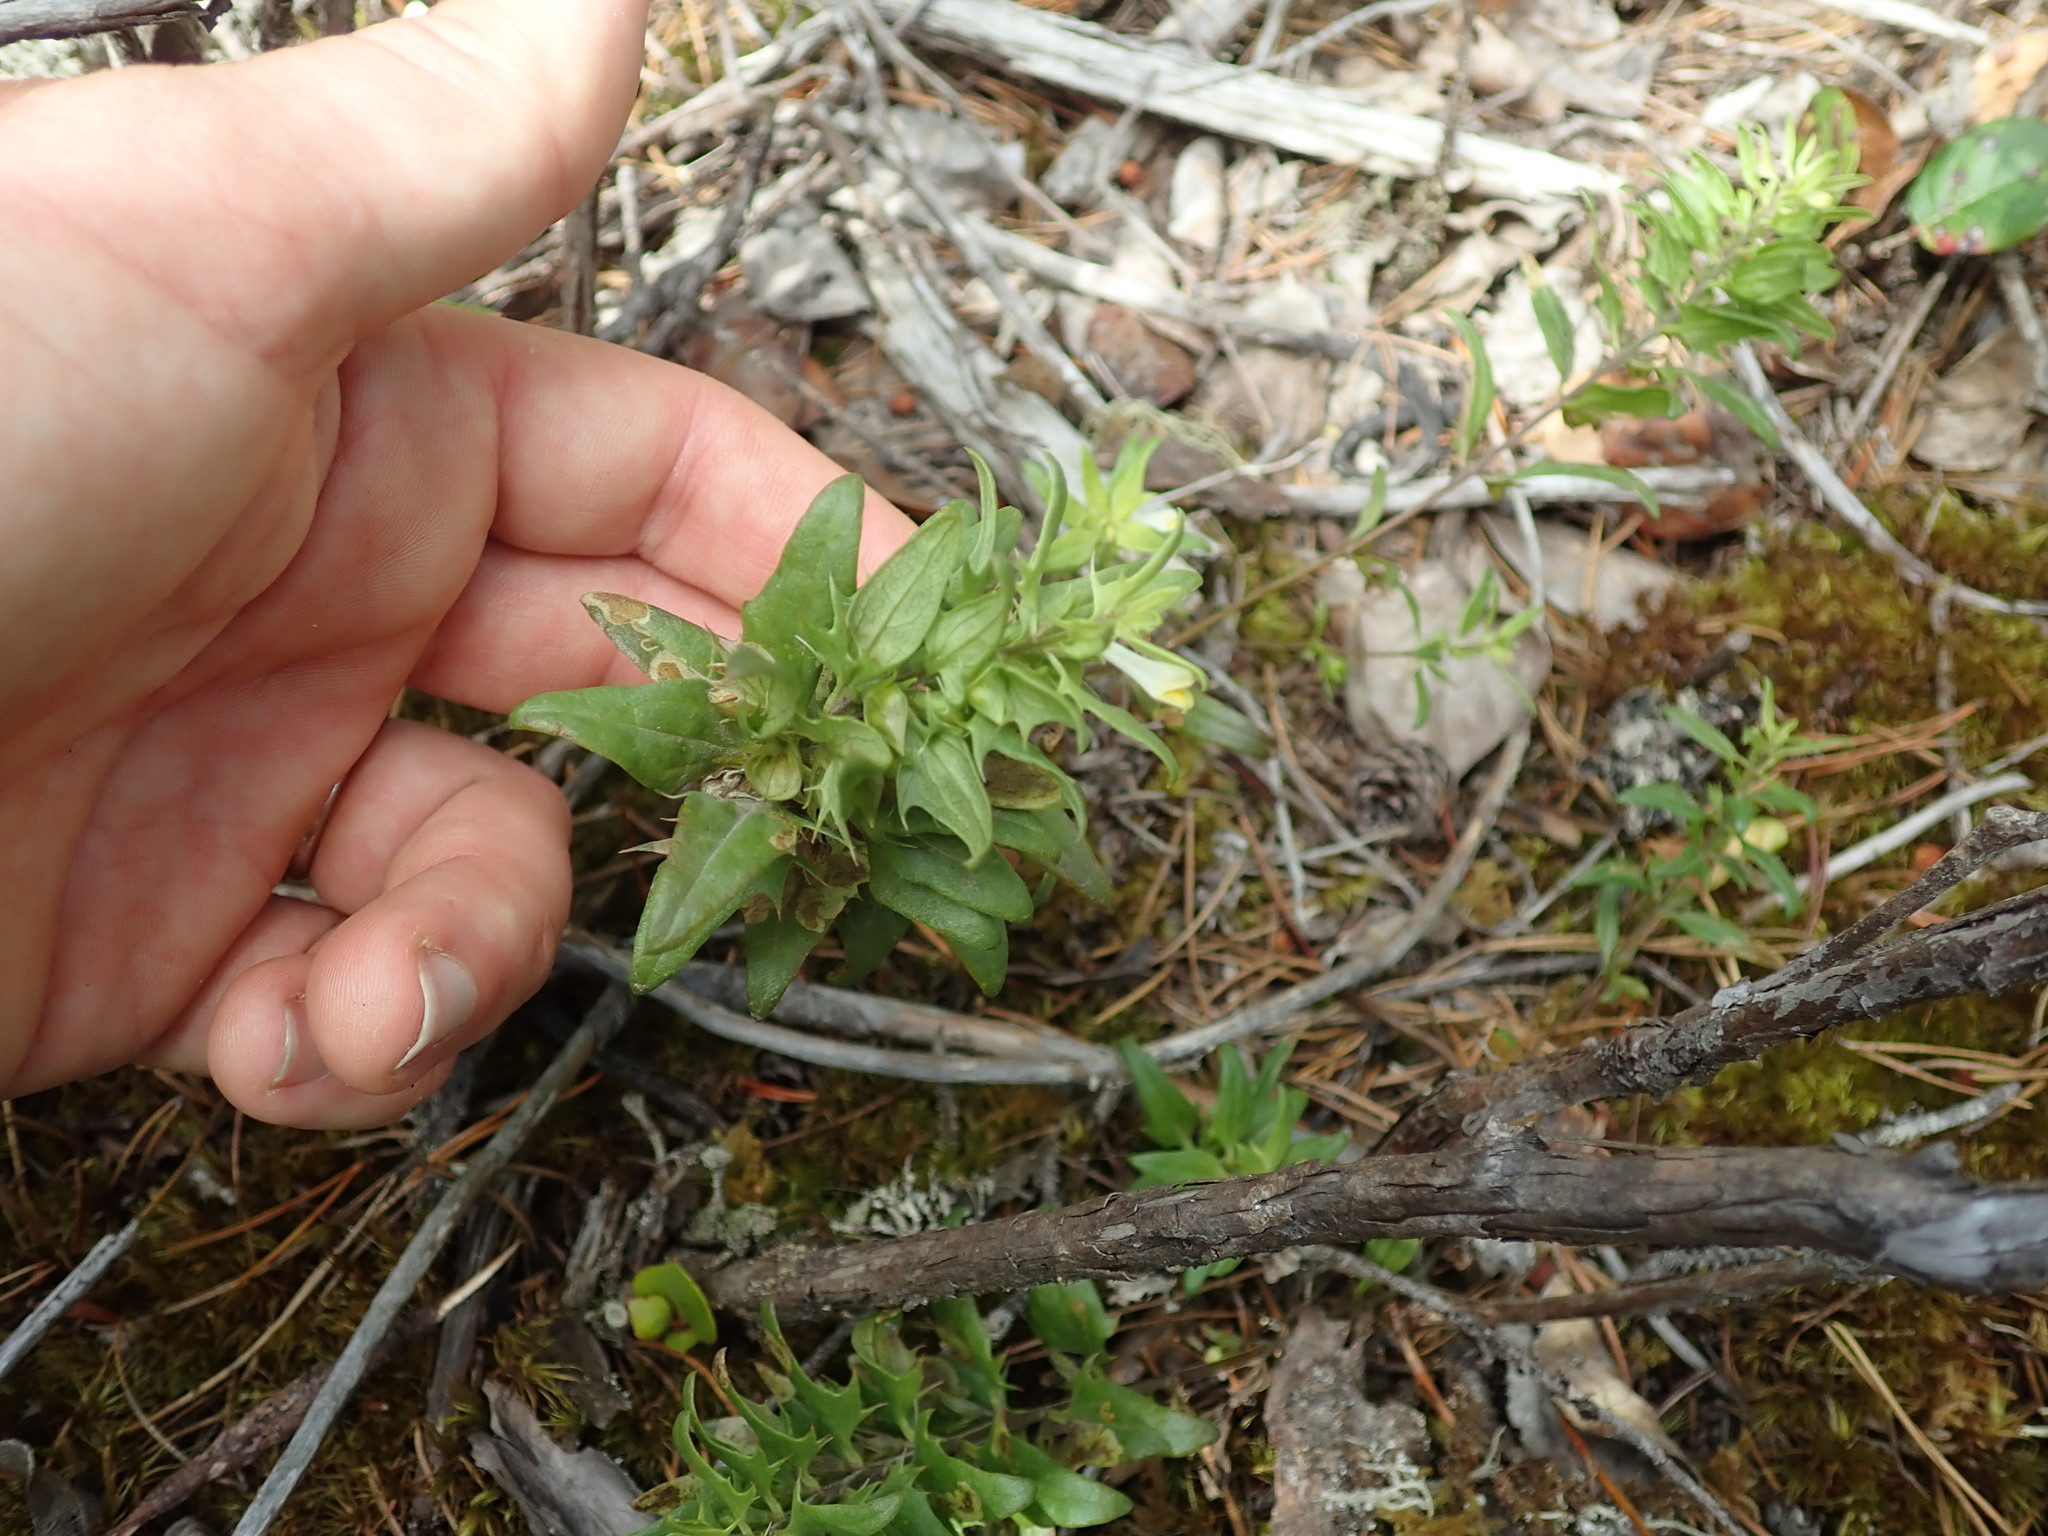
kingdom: Plantae
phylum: Tracheophyta
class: Magnoliopsida
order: Lamiales
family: Orobanchaceae
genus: Melampyrum
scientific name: Melampyrum lineare
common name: American cow-wheat
